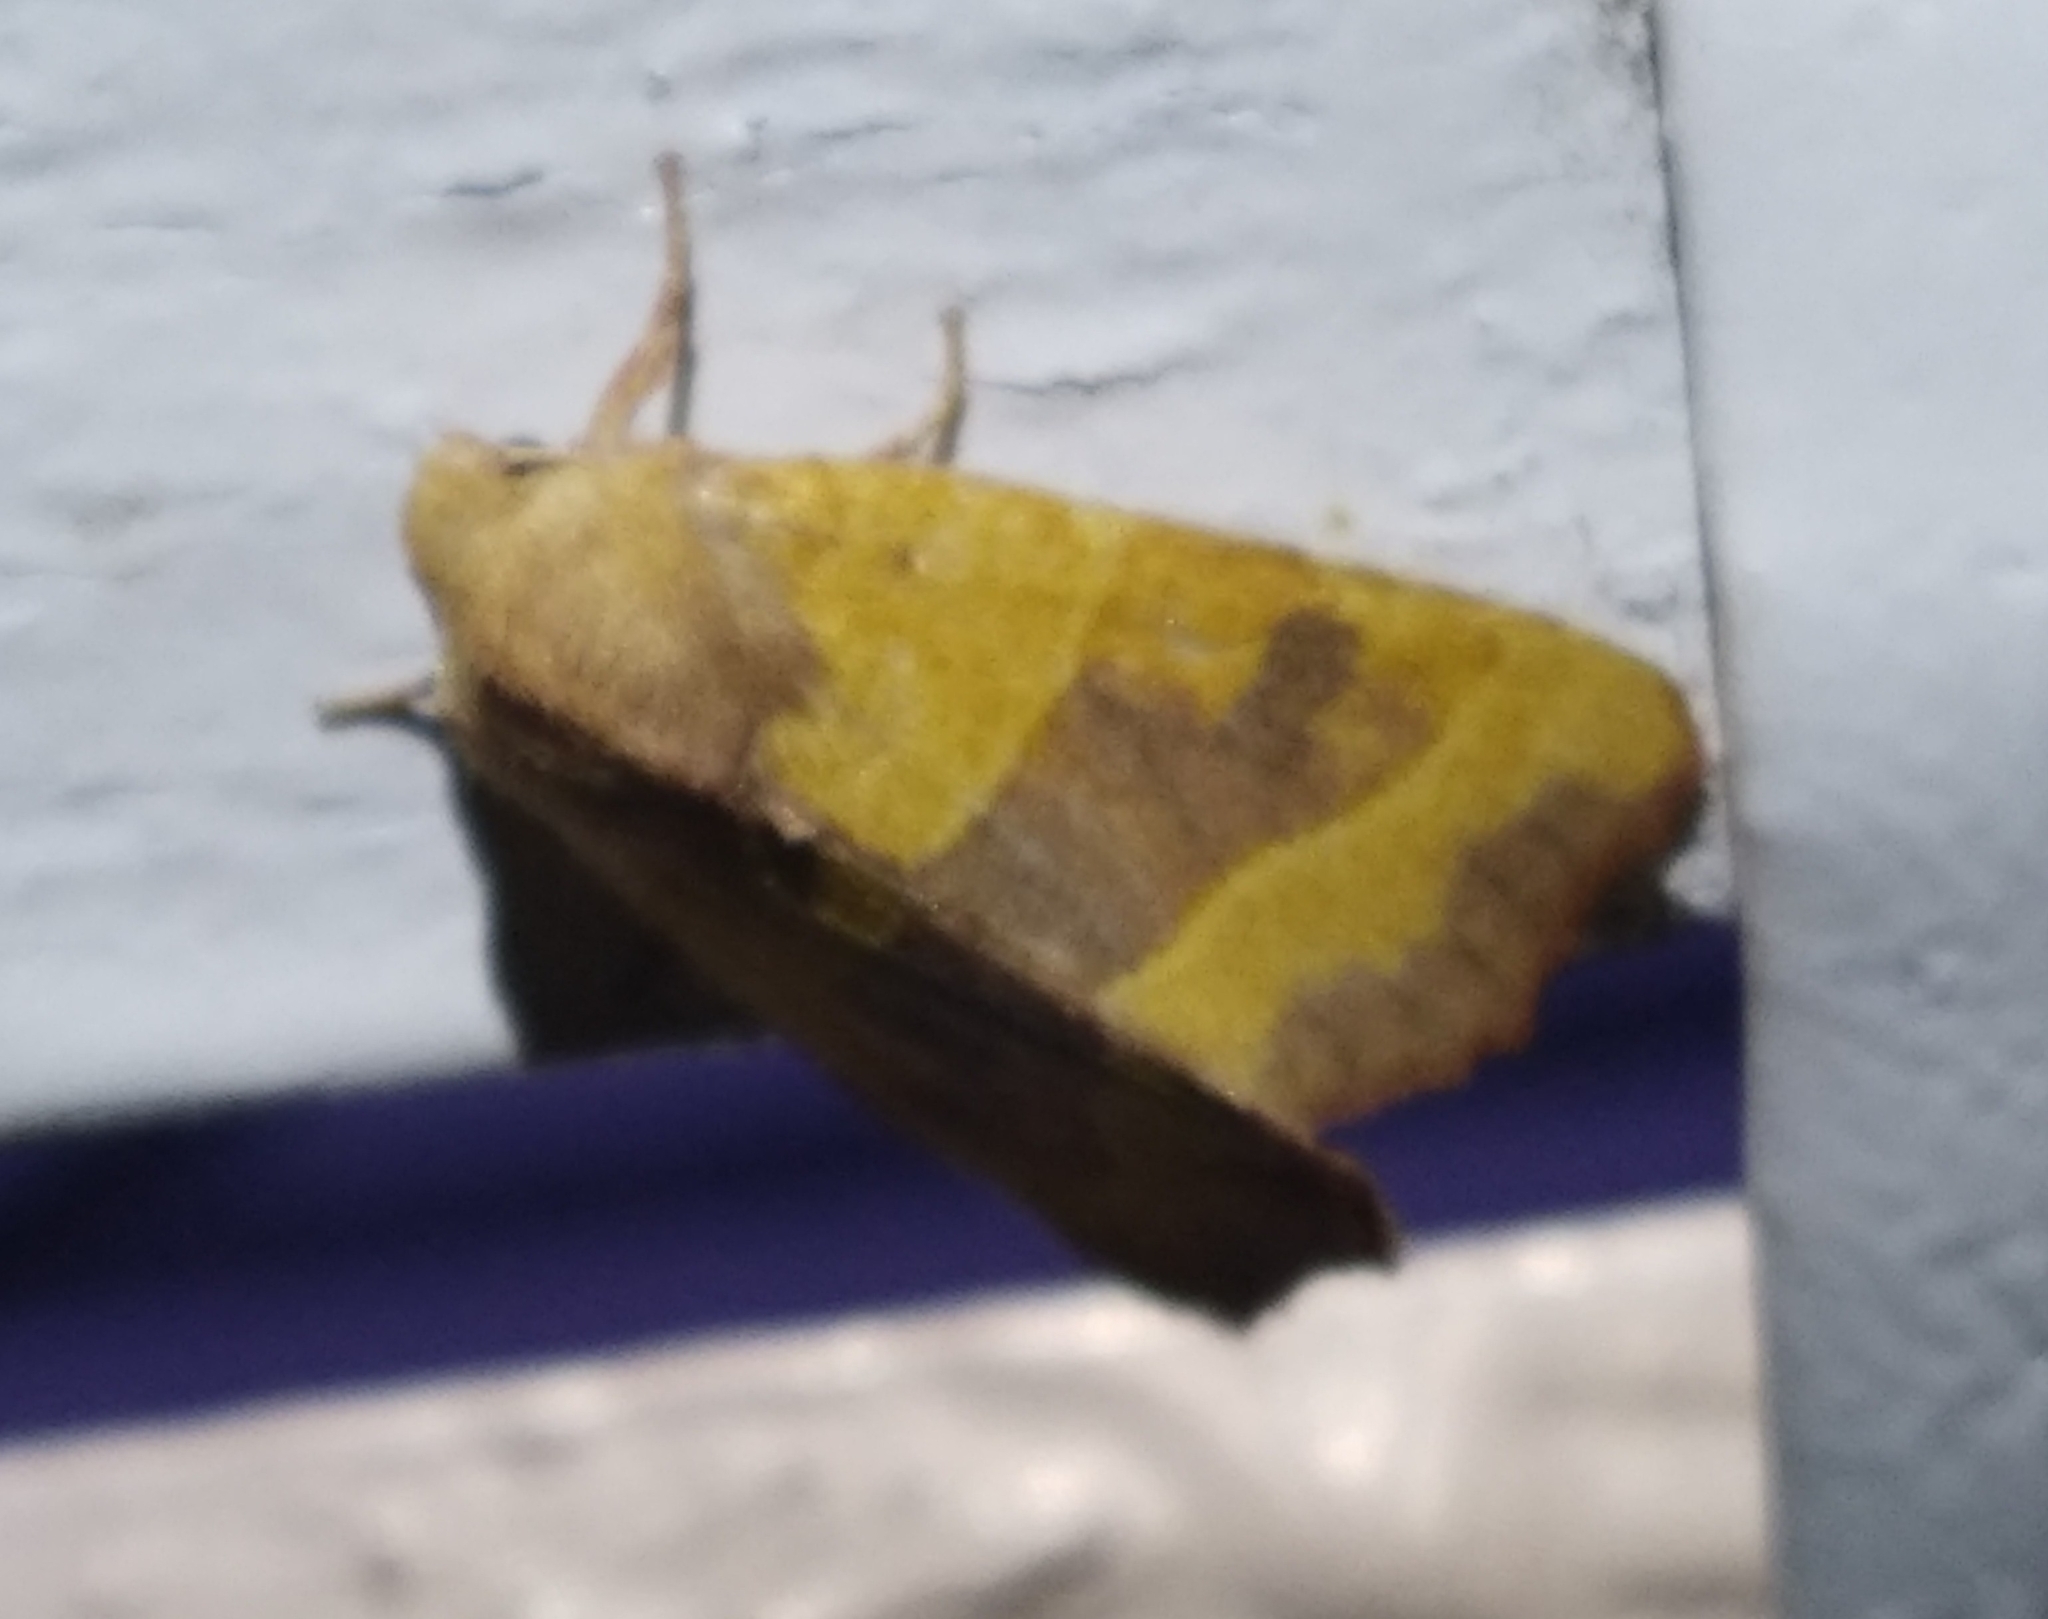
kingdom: Animalia
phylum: Arthropoda
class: Insecta
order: Lepidoptera
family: Noctuidae
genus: Atethmia
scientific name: Atethmia centrago
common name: Centre-barred sallow
